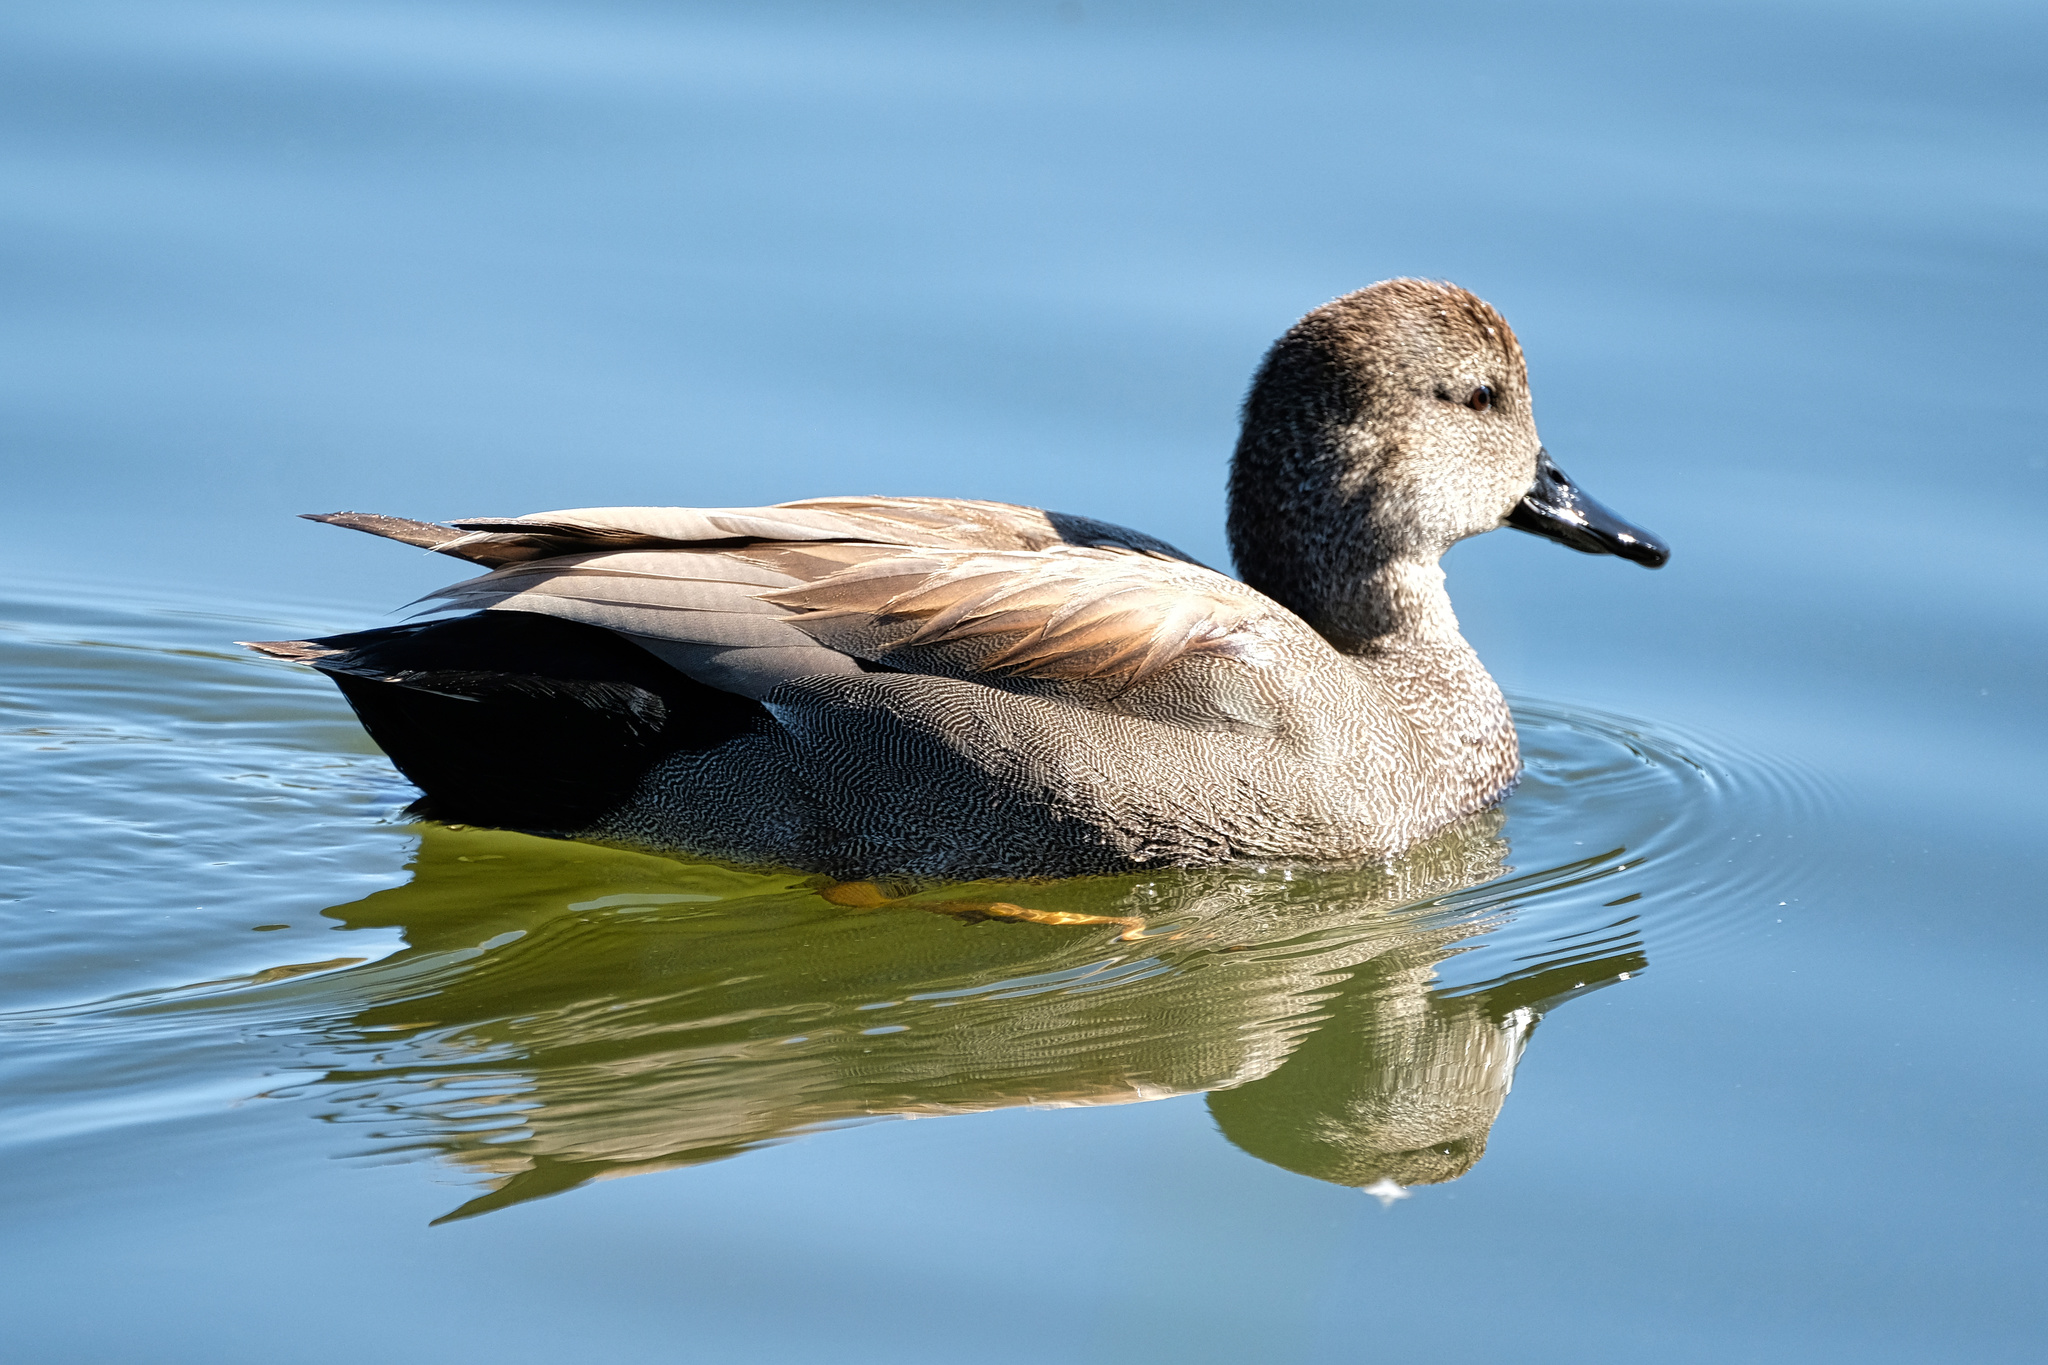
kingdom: Animalia
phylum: Chordata
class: Aves
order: Anseriformes
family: Anatidae
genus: Mareca
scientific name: Mareca strepera
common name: Gadwall
